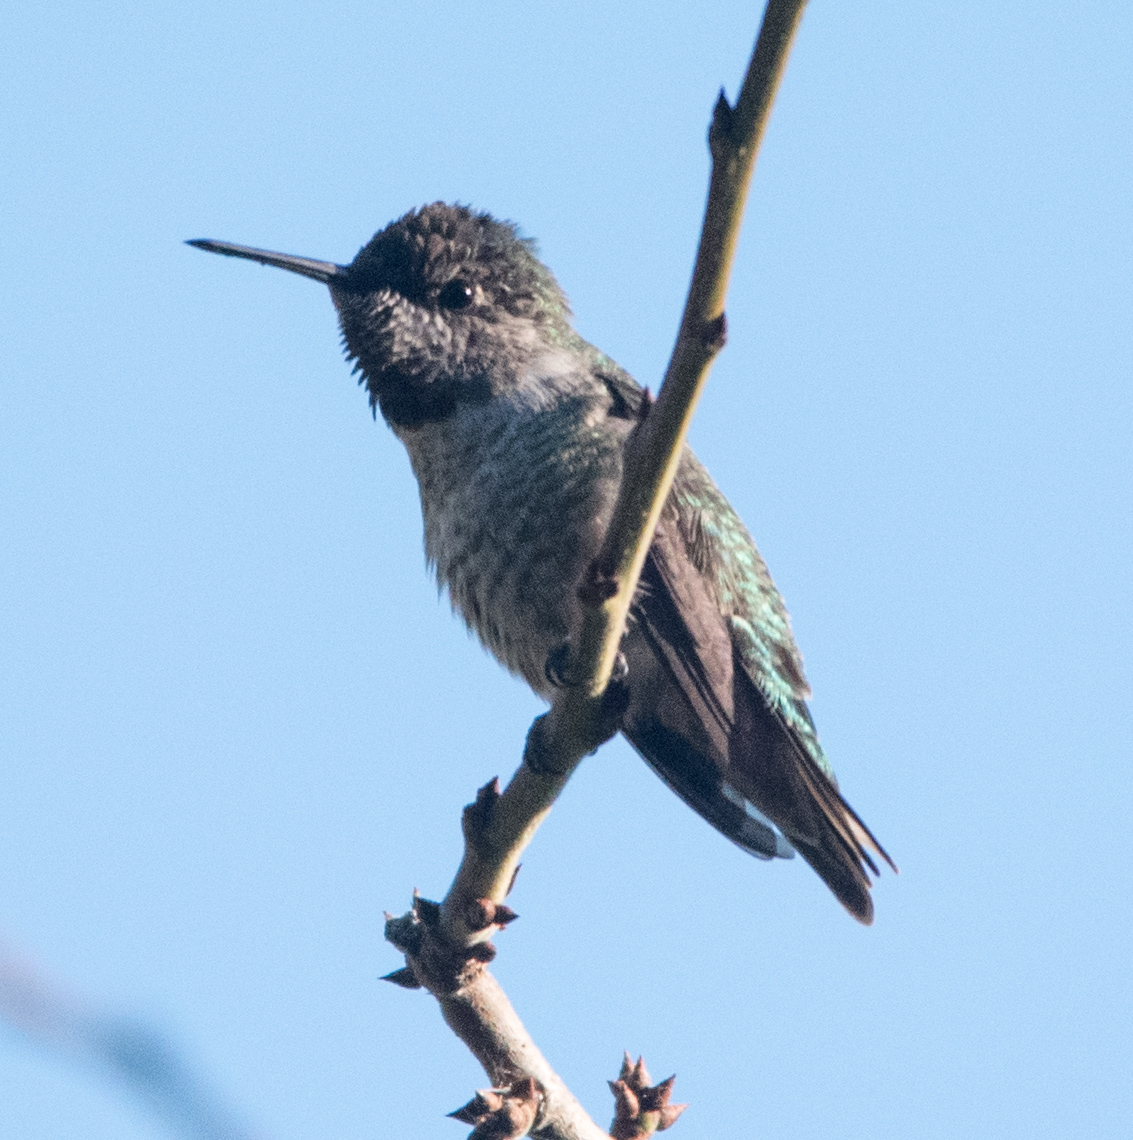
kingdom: Animalia
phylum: Chordata
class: Aves
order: Apodiformes
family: Trochilidae
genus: Calypte
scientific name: Calypte anna
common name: Anna's hummingbird
